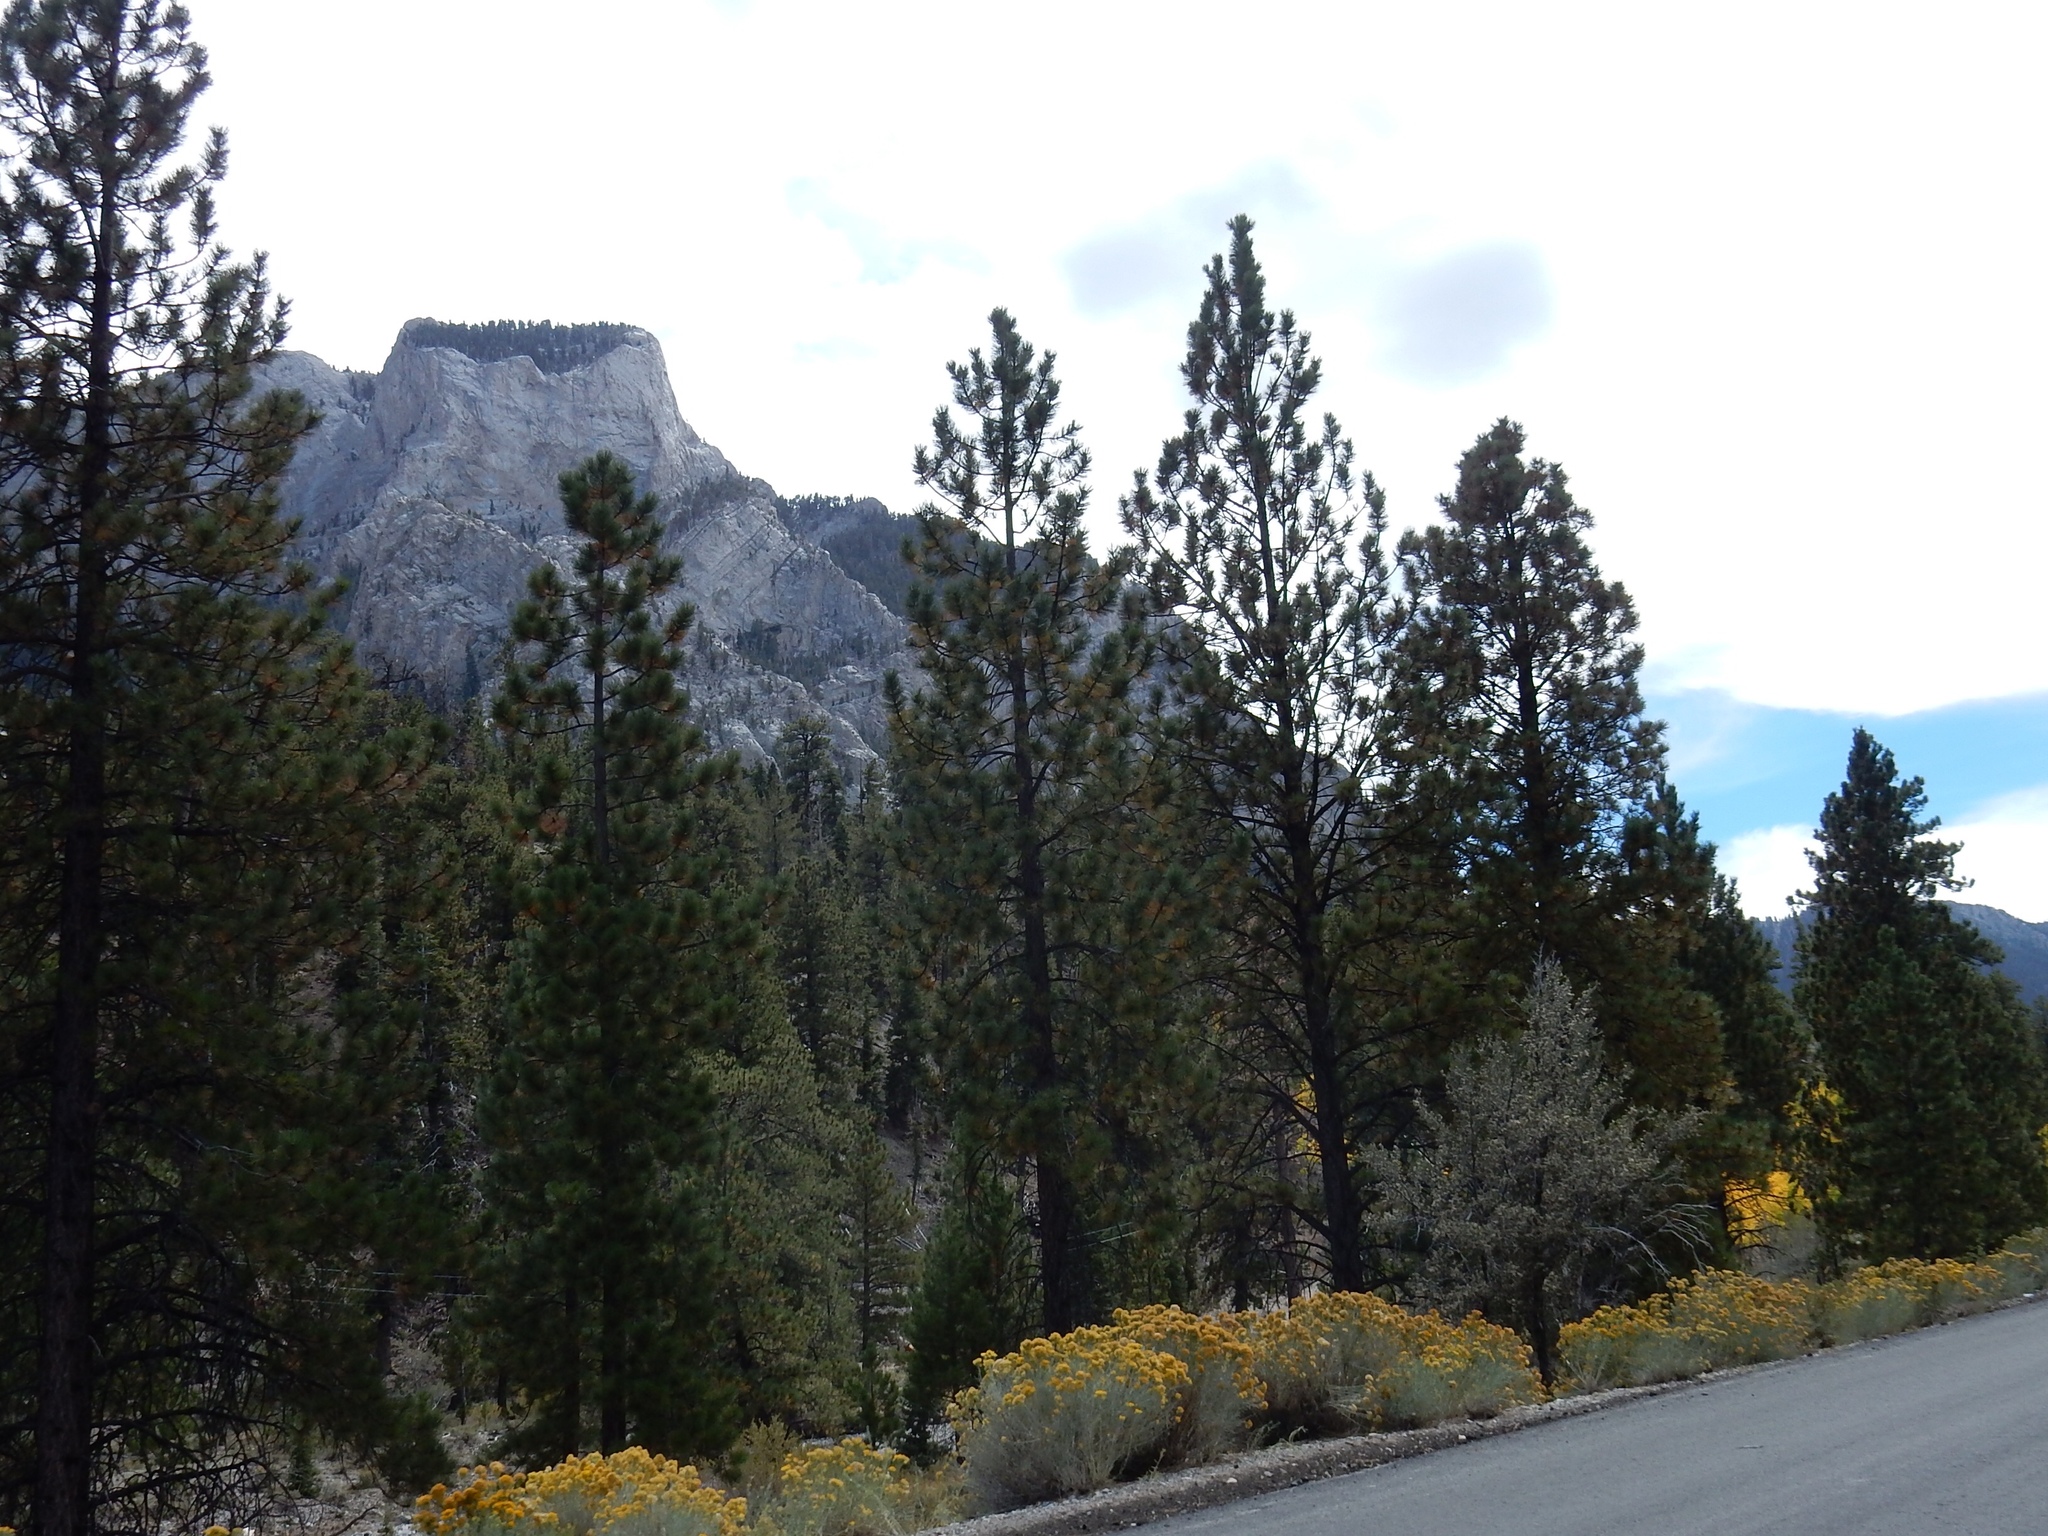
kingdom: Plantae
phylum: Tracheophyta
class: Pinopsida
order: Pinales
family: Pinaceae
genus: Pinus
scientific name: Pinus ponderosa
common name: Western yellow-pine
